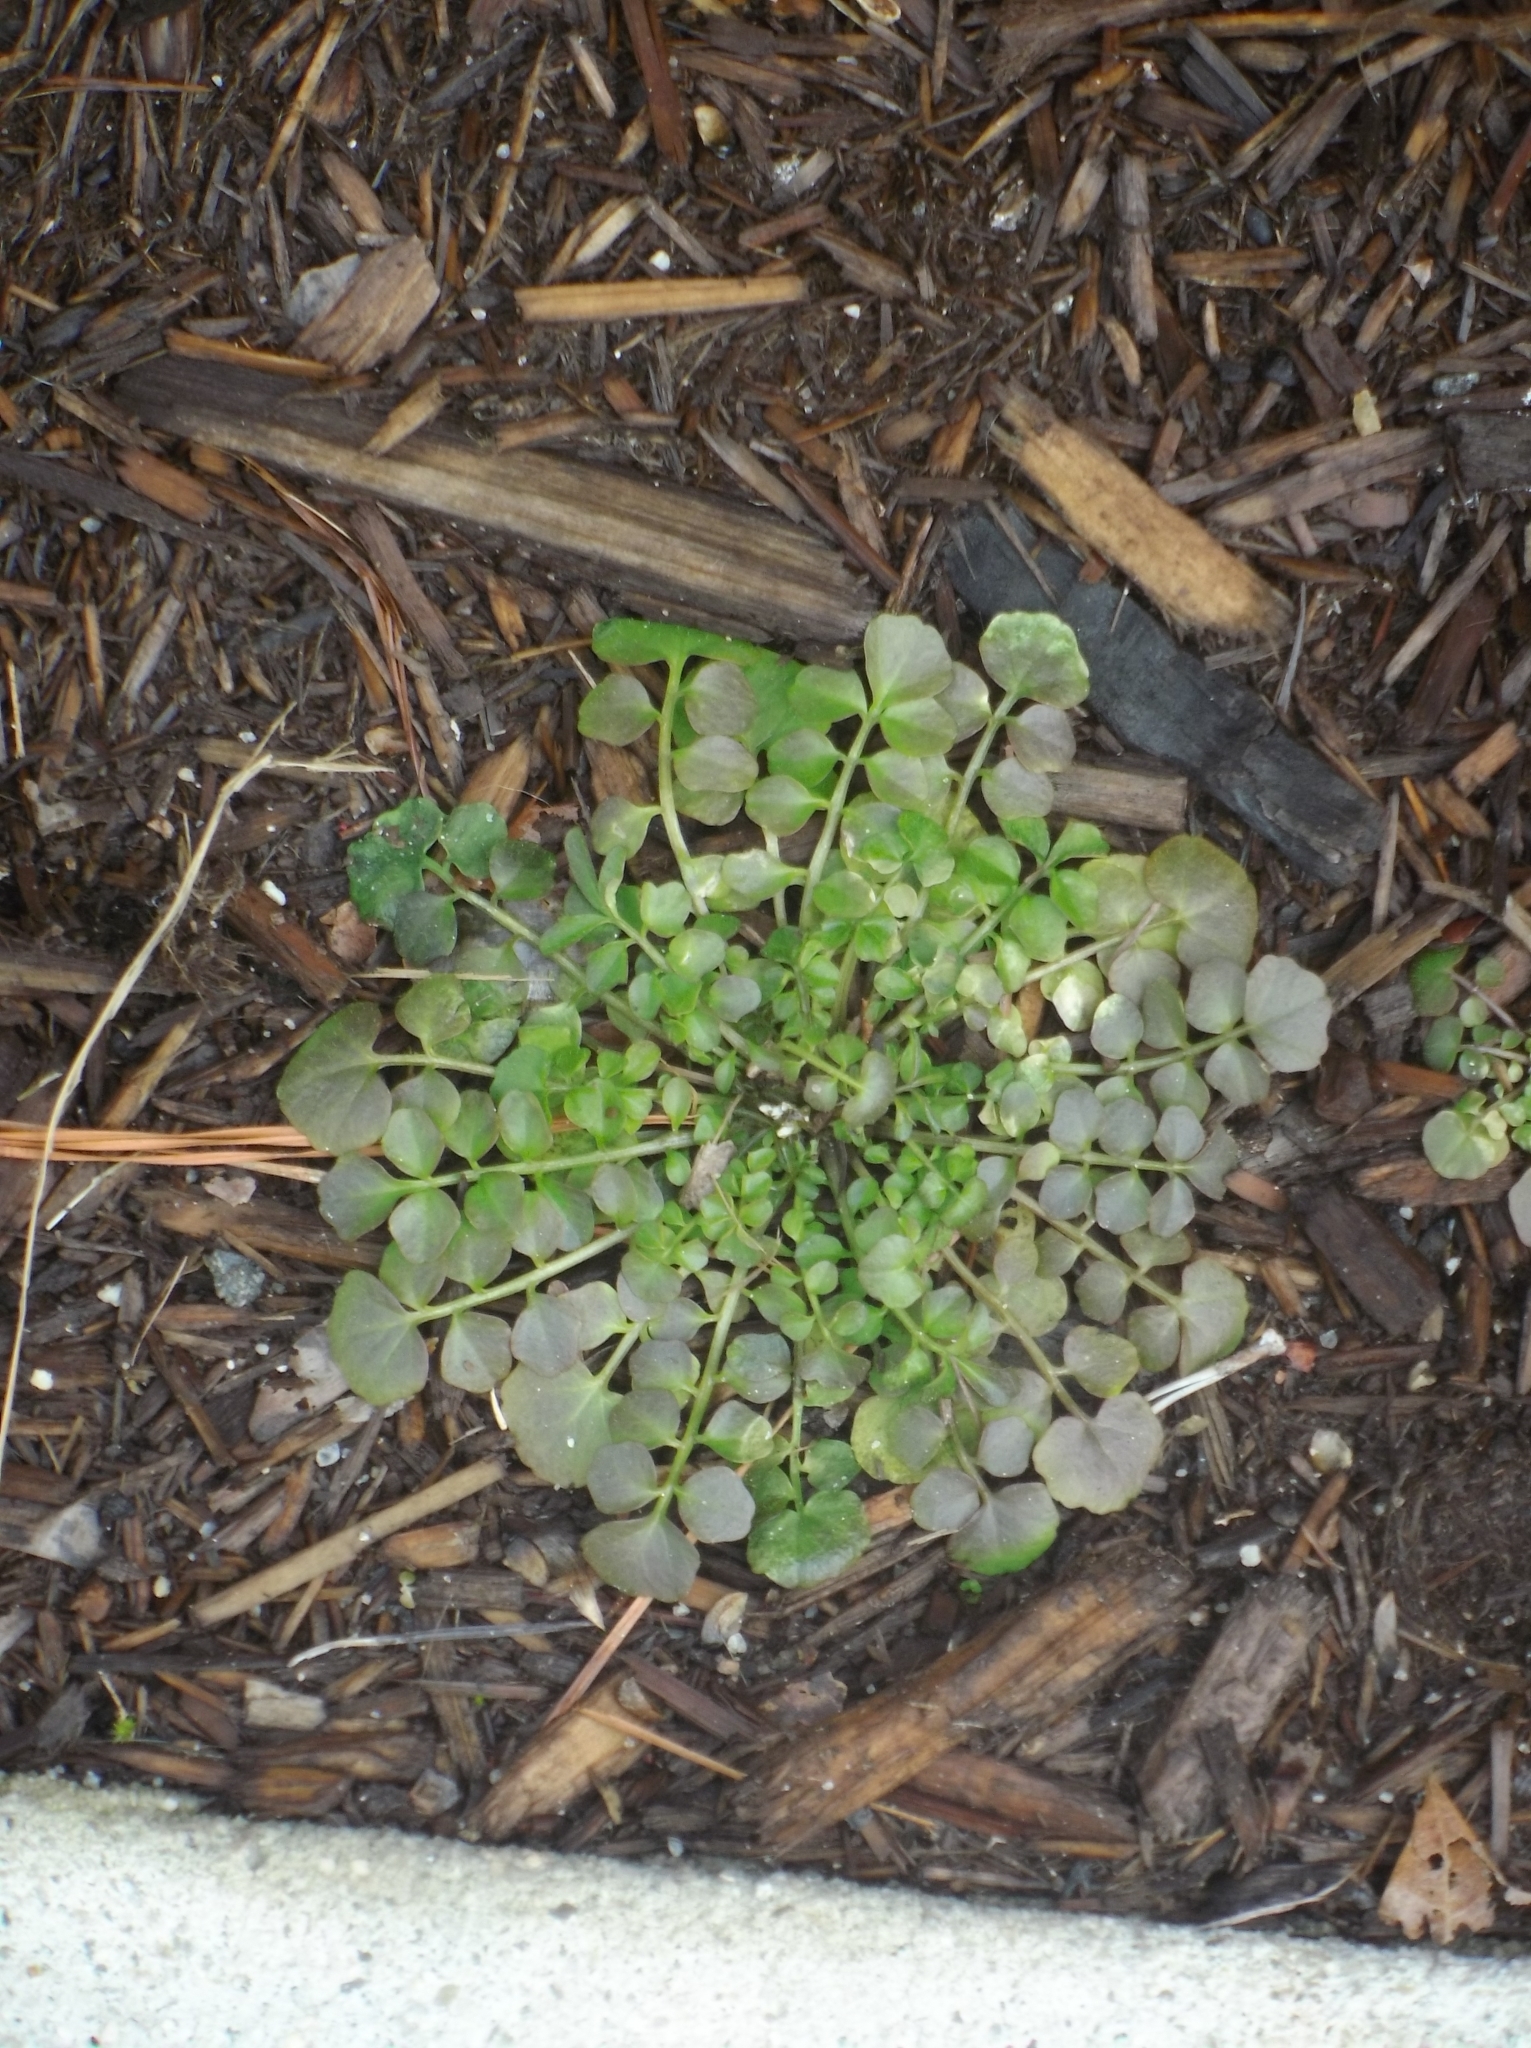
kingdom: Plantae
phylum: Tracheophyta
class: Magnoliopsida
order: Brassicales
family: Brassicaceae
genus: Cardamine
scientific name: Cardamine hirsuta
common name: Hairy bittercress
